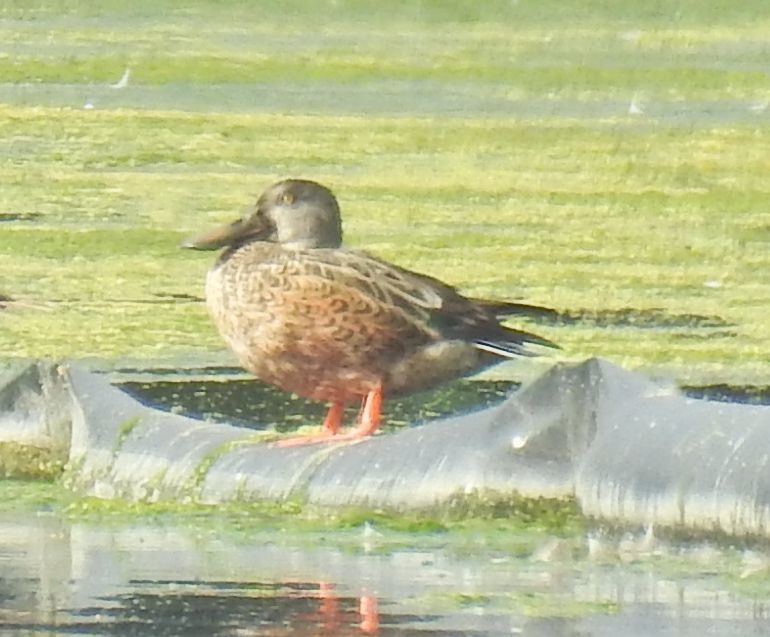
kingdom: Animalia
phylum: Chordata
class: Aves
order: Anseriformes
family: Anatidae
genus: Spatula
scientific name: Spatula clypeata
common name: Northern shoveler
